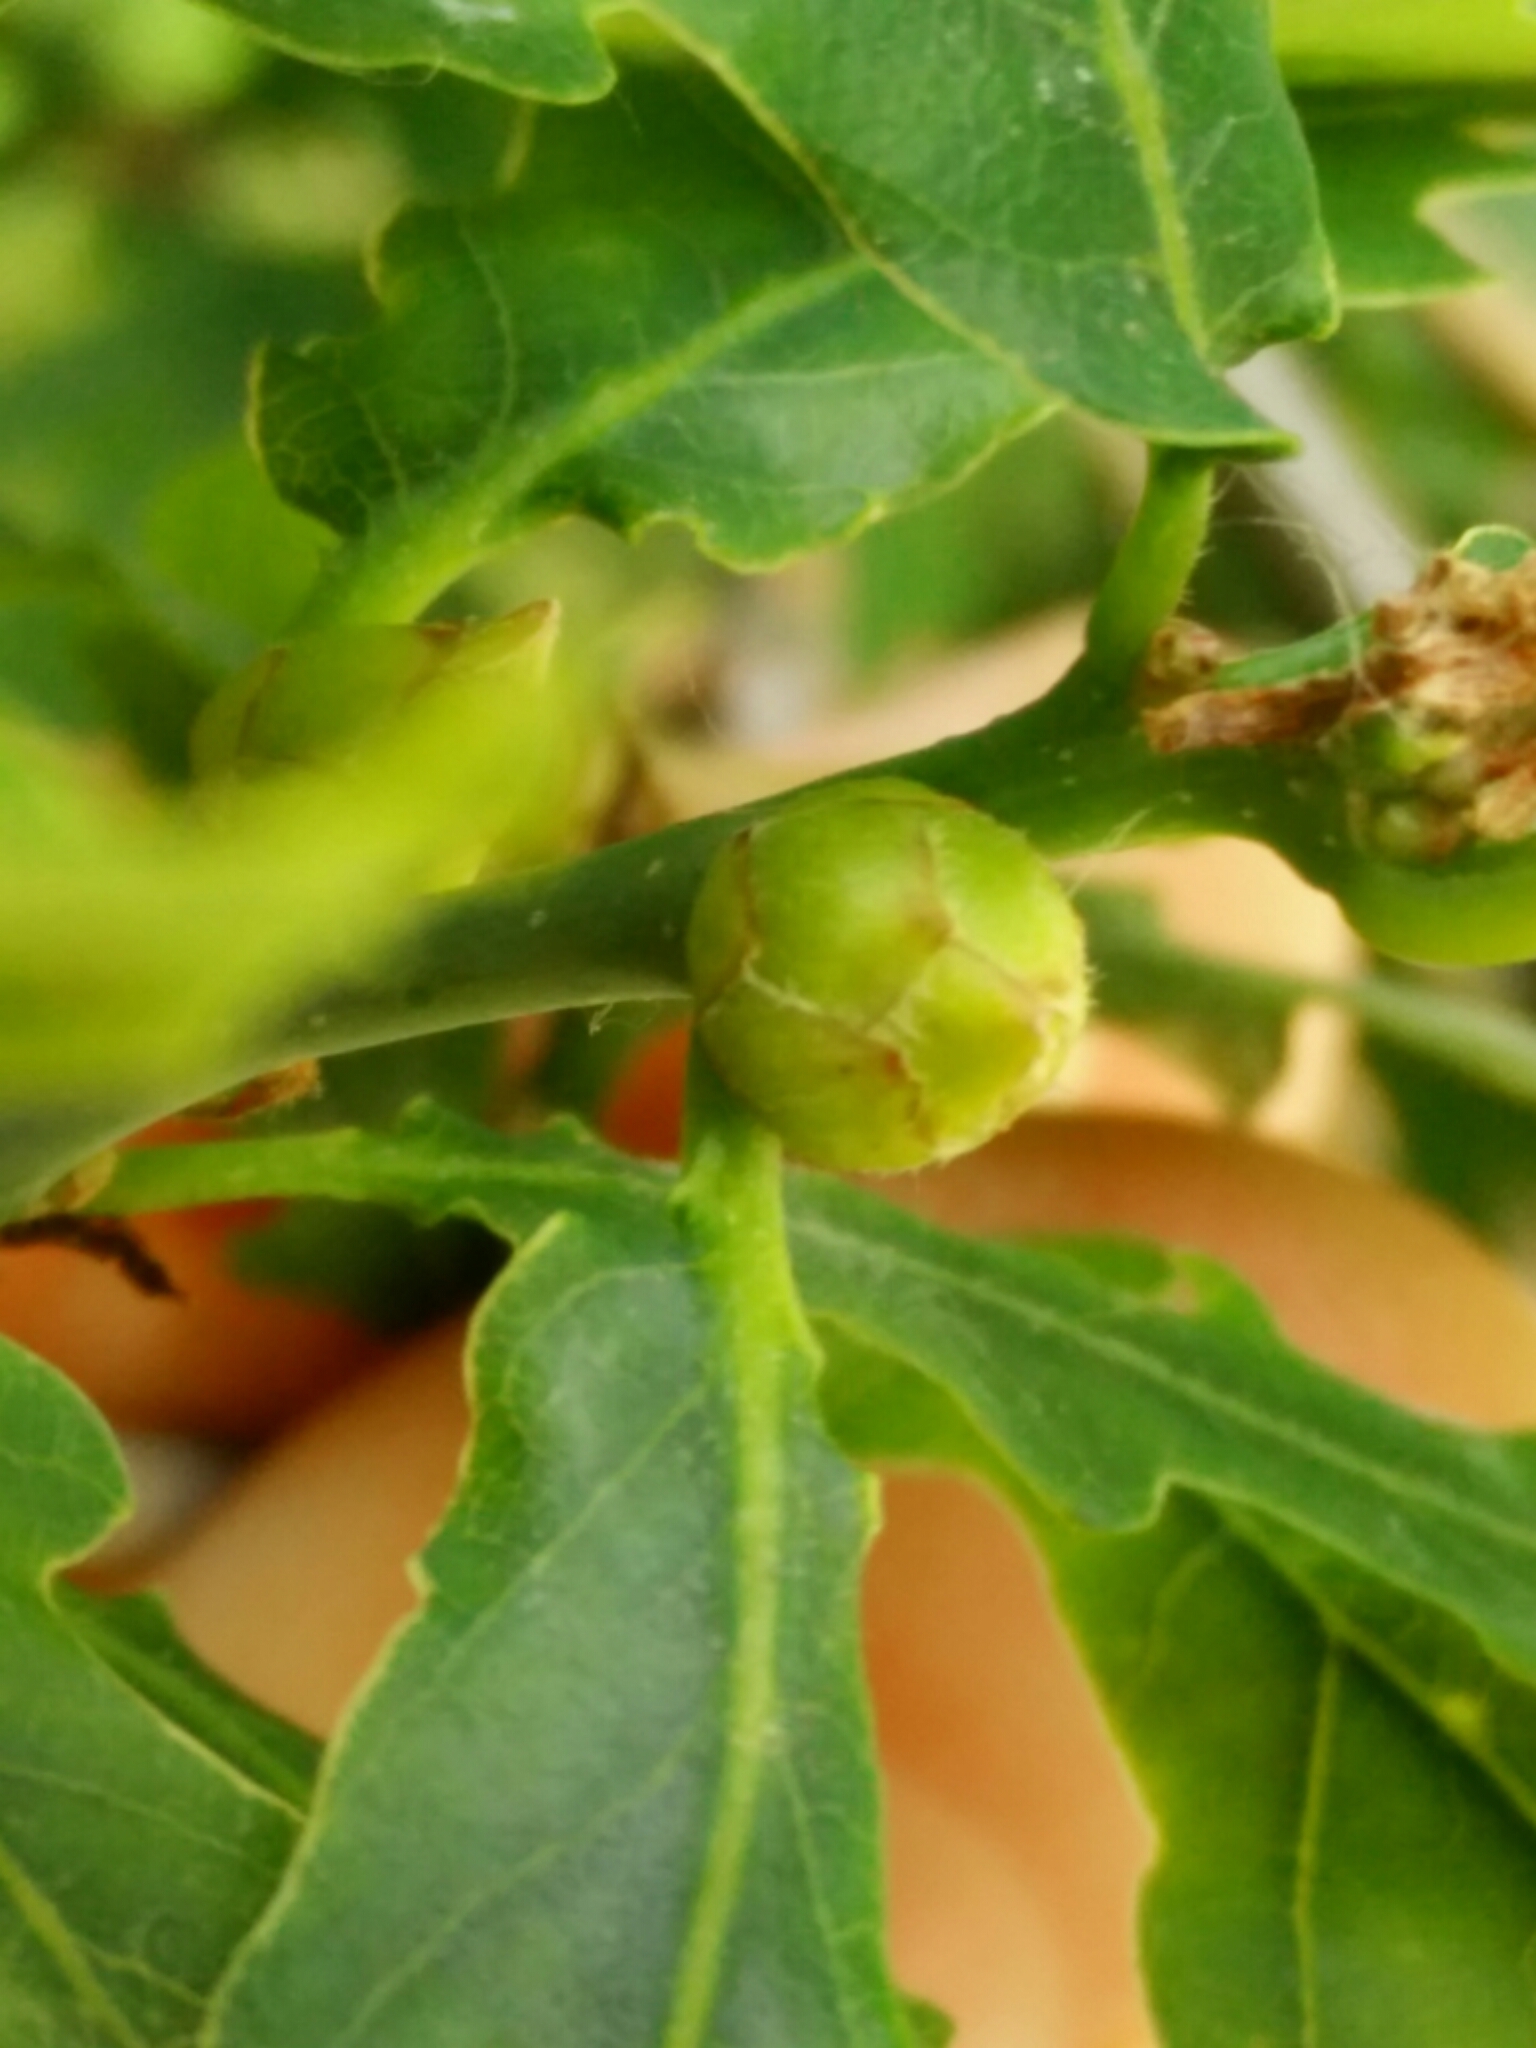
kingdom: Animalia
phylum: Arthropoda
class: Insecta
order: Hymenoptera
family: Cynipidae
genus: Andricus
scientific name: Andricus foecundatrix
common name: Artichoke gall
